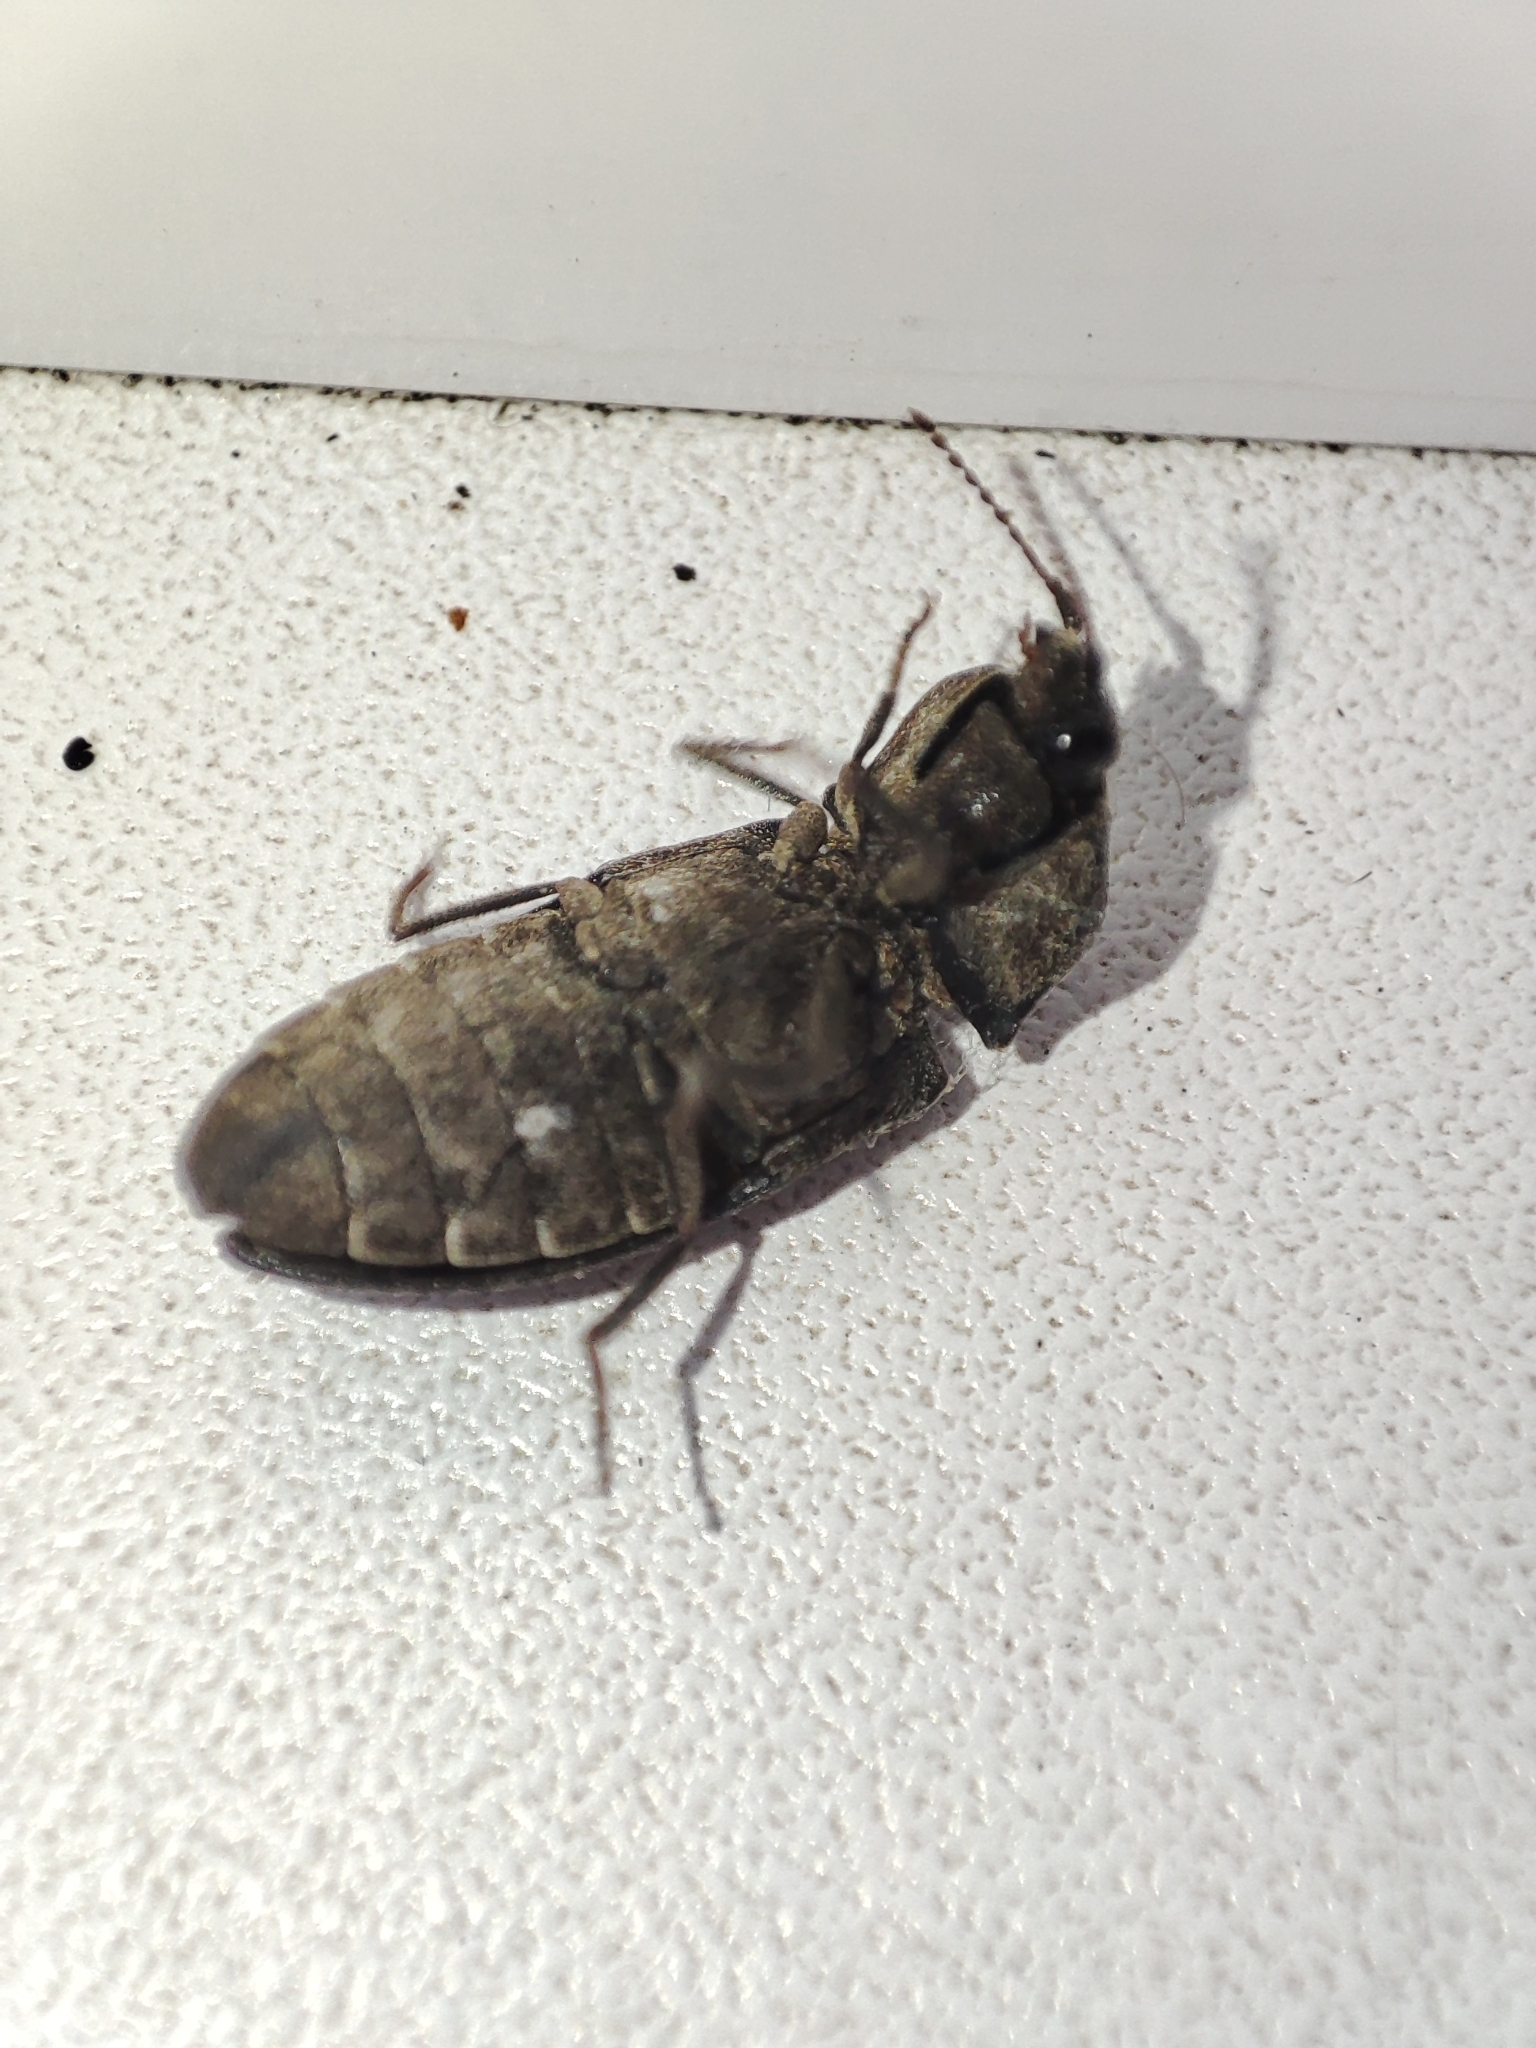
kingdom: Animalia
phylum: Arthropoda
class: Insecta
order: Coleoptera
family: Elateridae
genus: Agrypnus
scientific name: Agrypnus murinus
